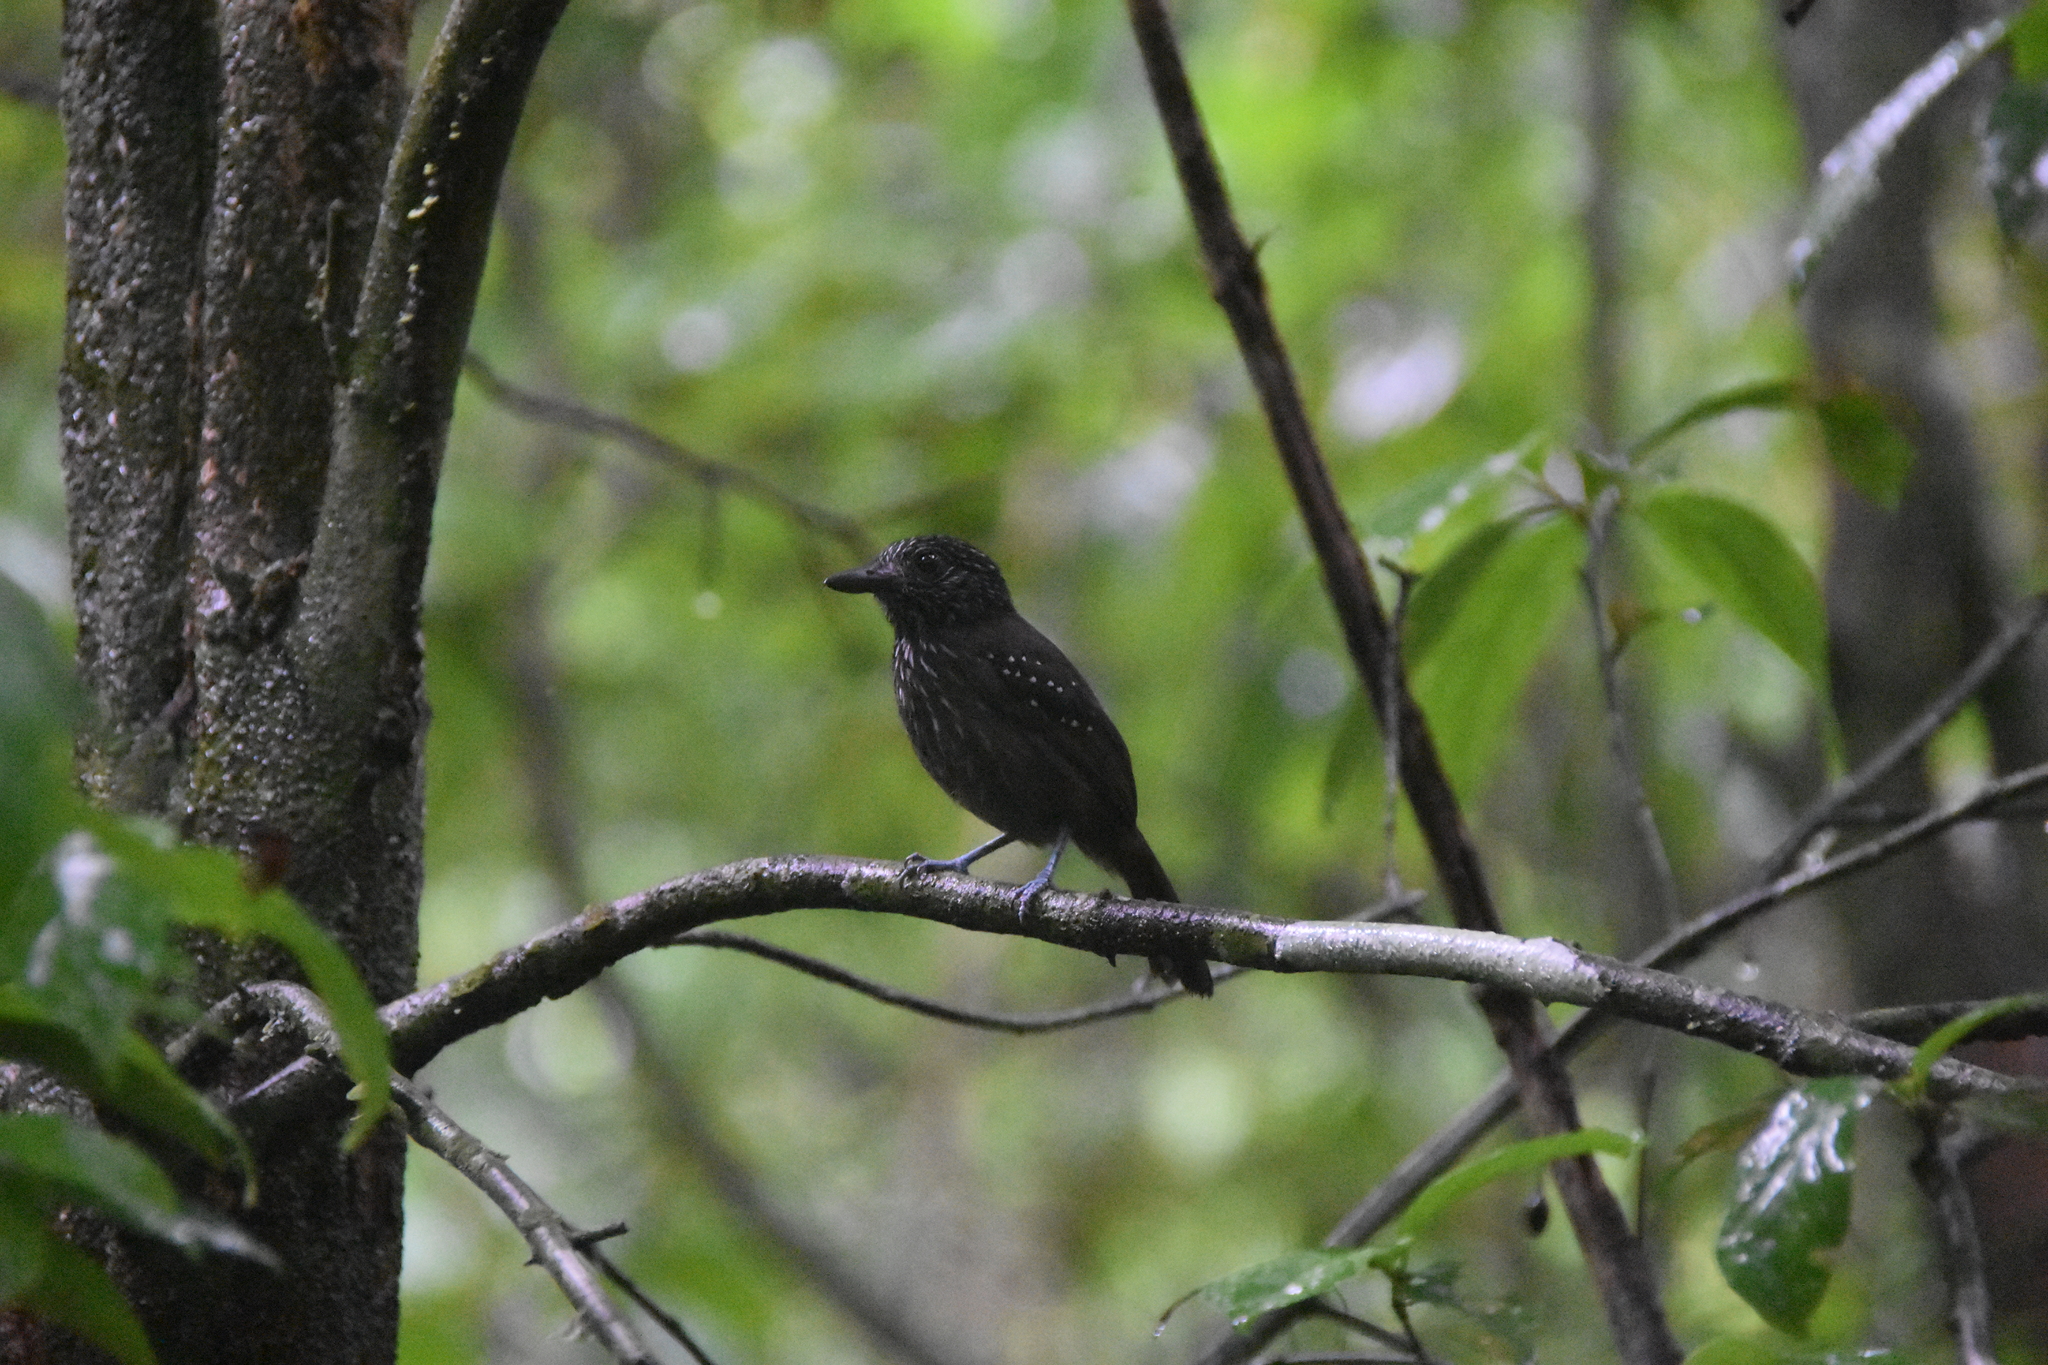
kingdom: Animalia
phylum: Chordata
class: Aves
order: Passeriformes
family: Thamnophilidae
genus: Thamnophilus
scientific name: Thamnophilus bridgesi
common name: Black-hooded antshrike
